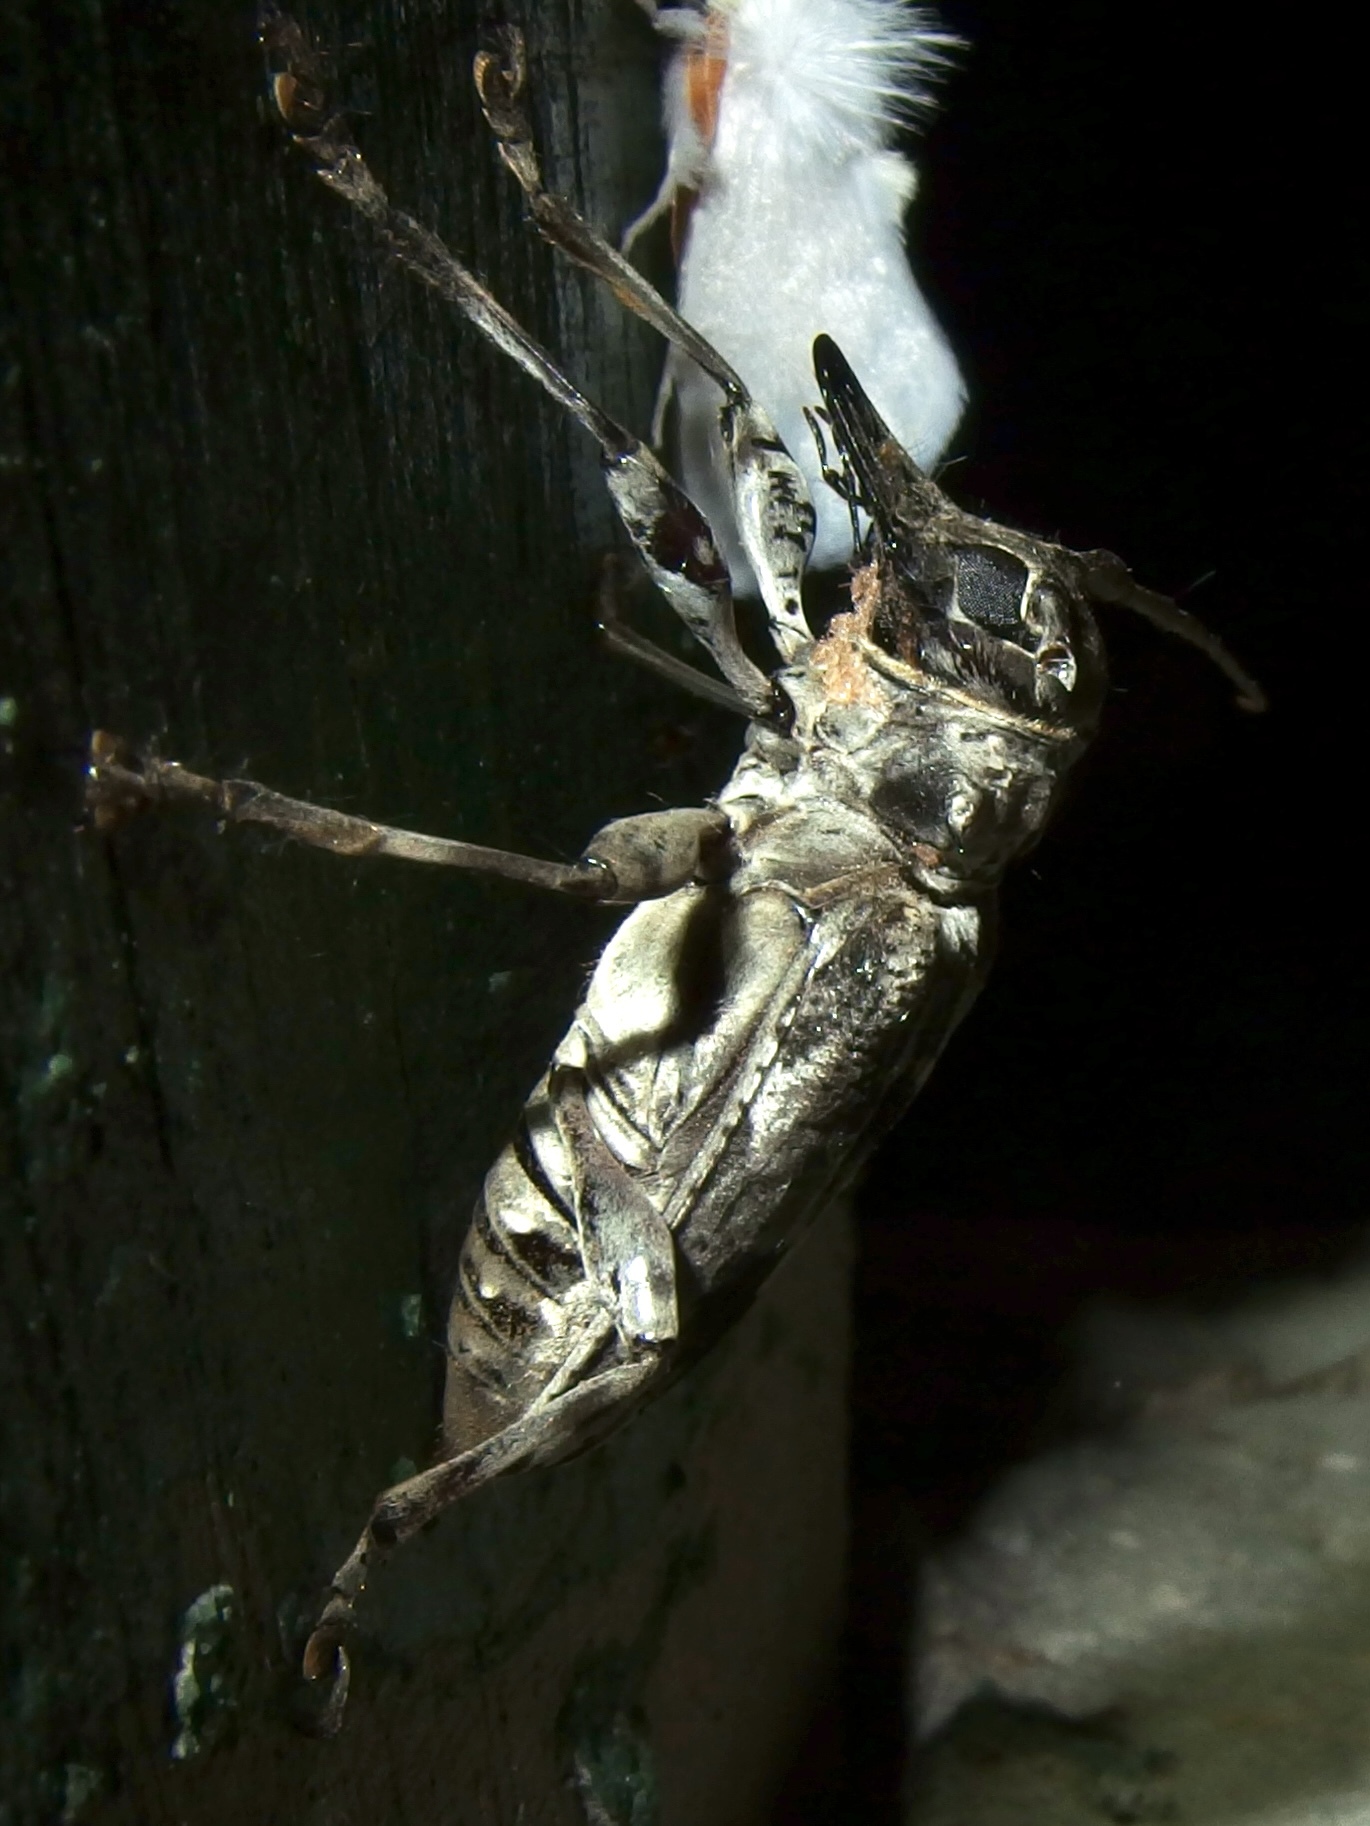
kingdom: Animalia
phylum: Arthropoda
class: Insecta
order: Coleoptera
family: Cerambycidae
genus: Dryoctenes
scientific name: Dryoctenes scrupulosus
